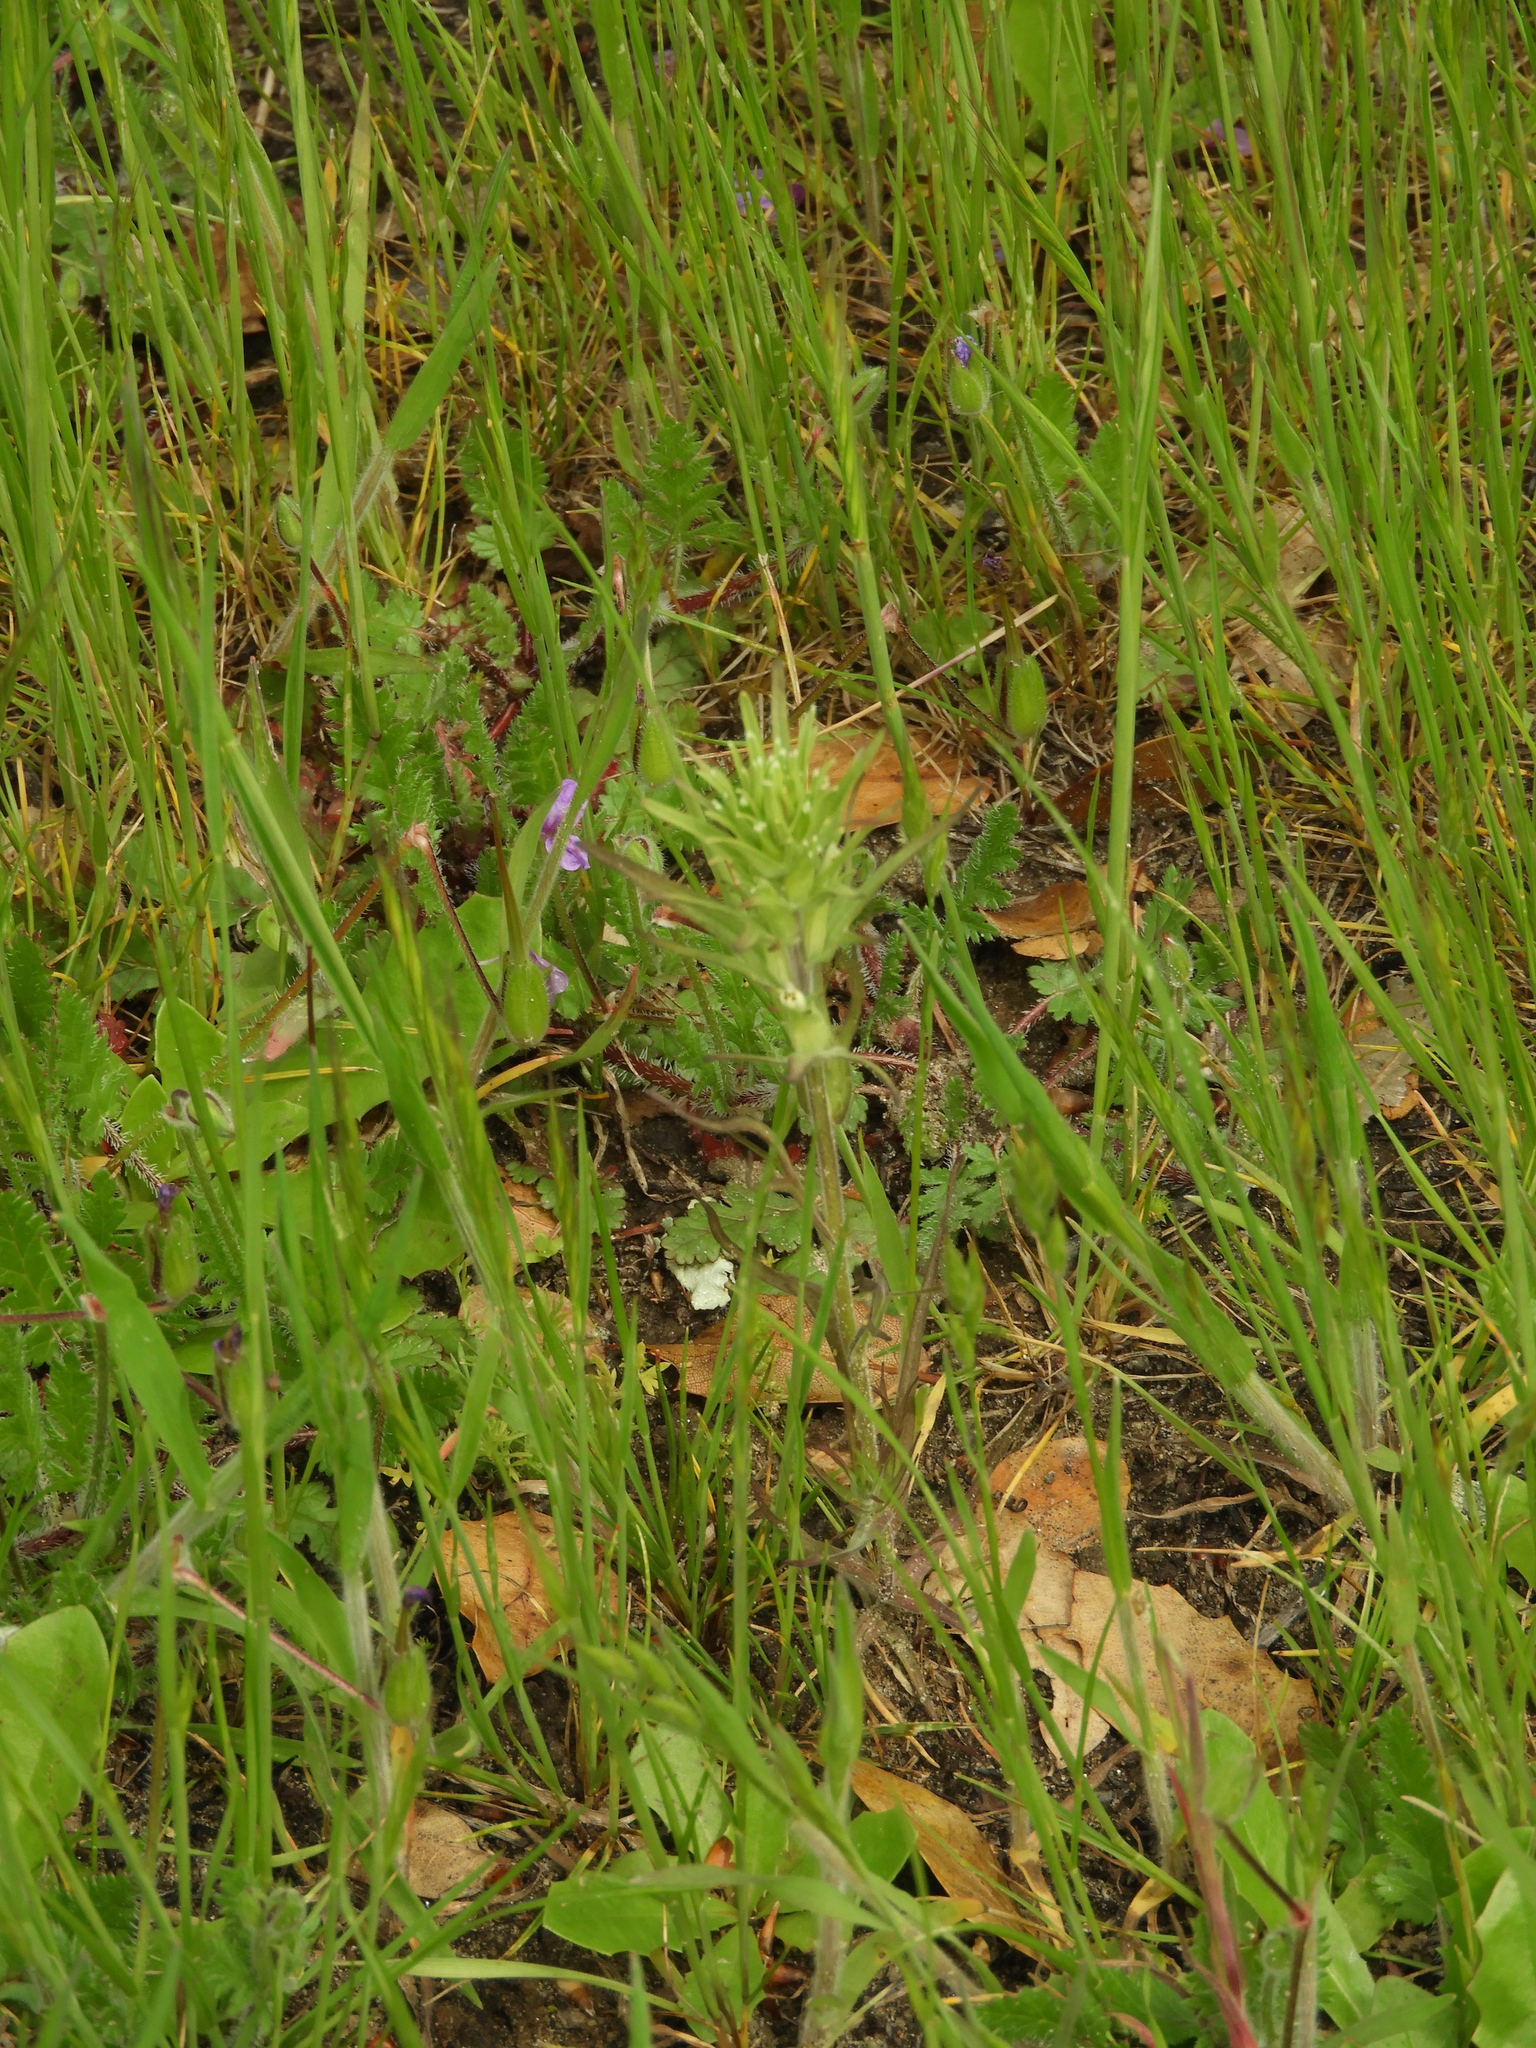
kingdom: Plantae
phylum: Tracheophyta
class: Magnoliopsida
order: Lamiales
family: Orobanchaceae
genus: Castilleja
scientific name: Castilleja attenuata
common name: Valley tassels
